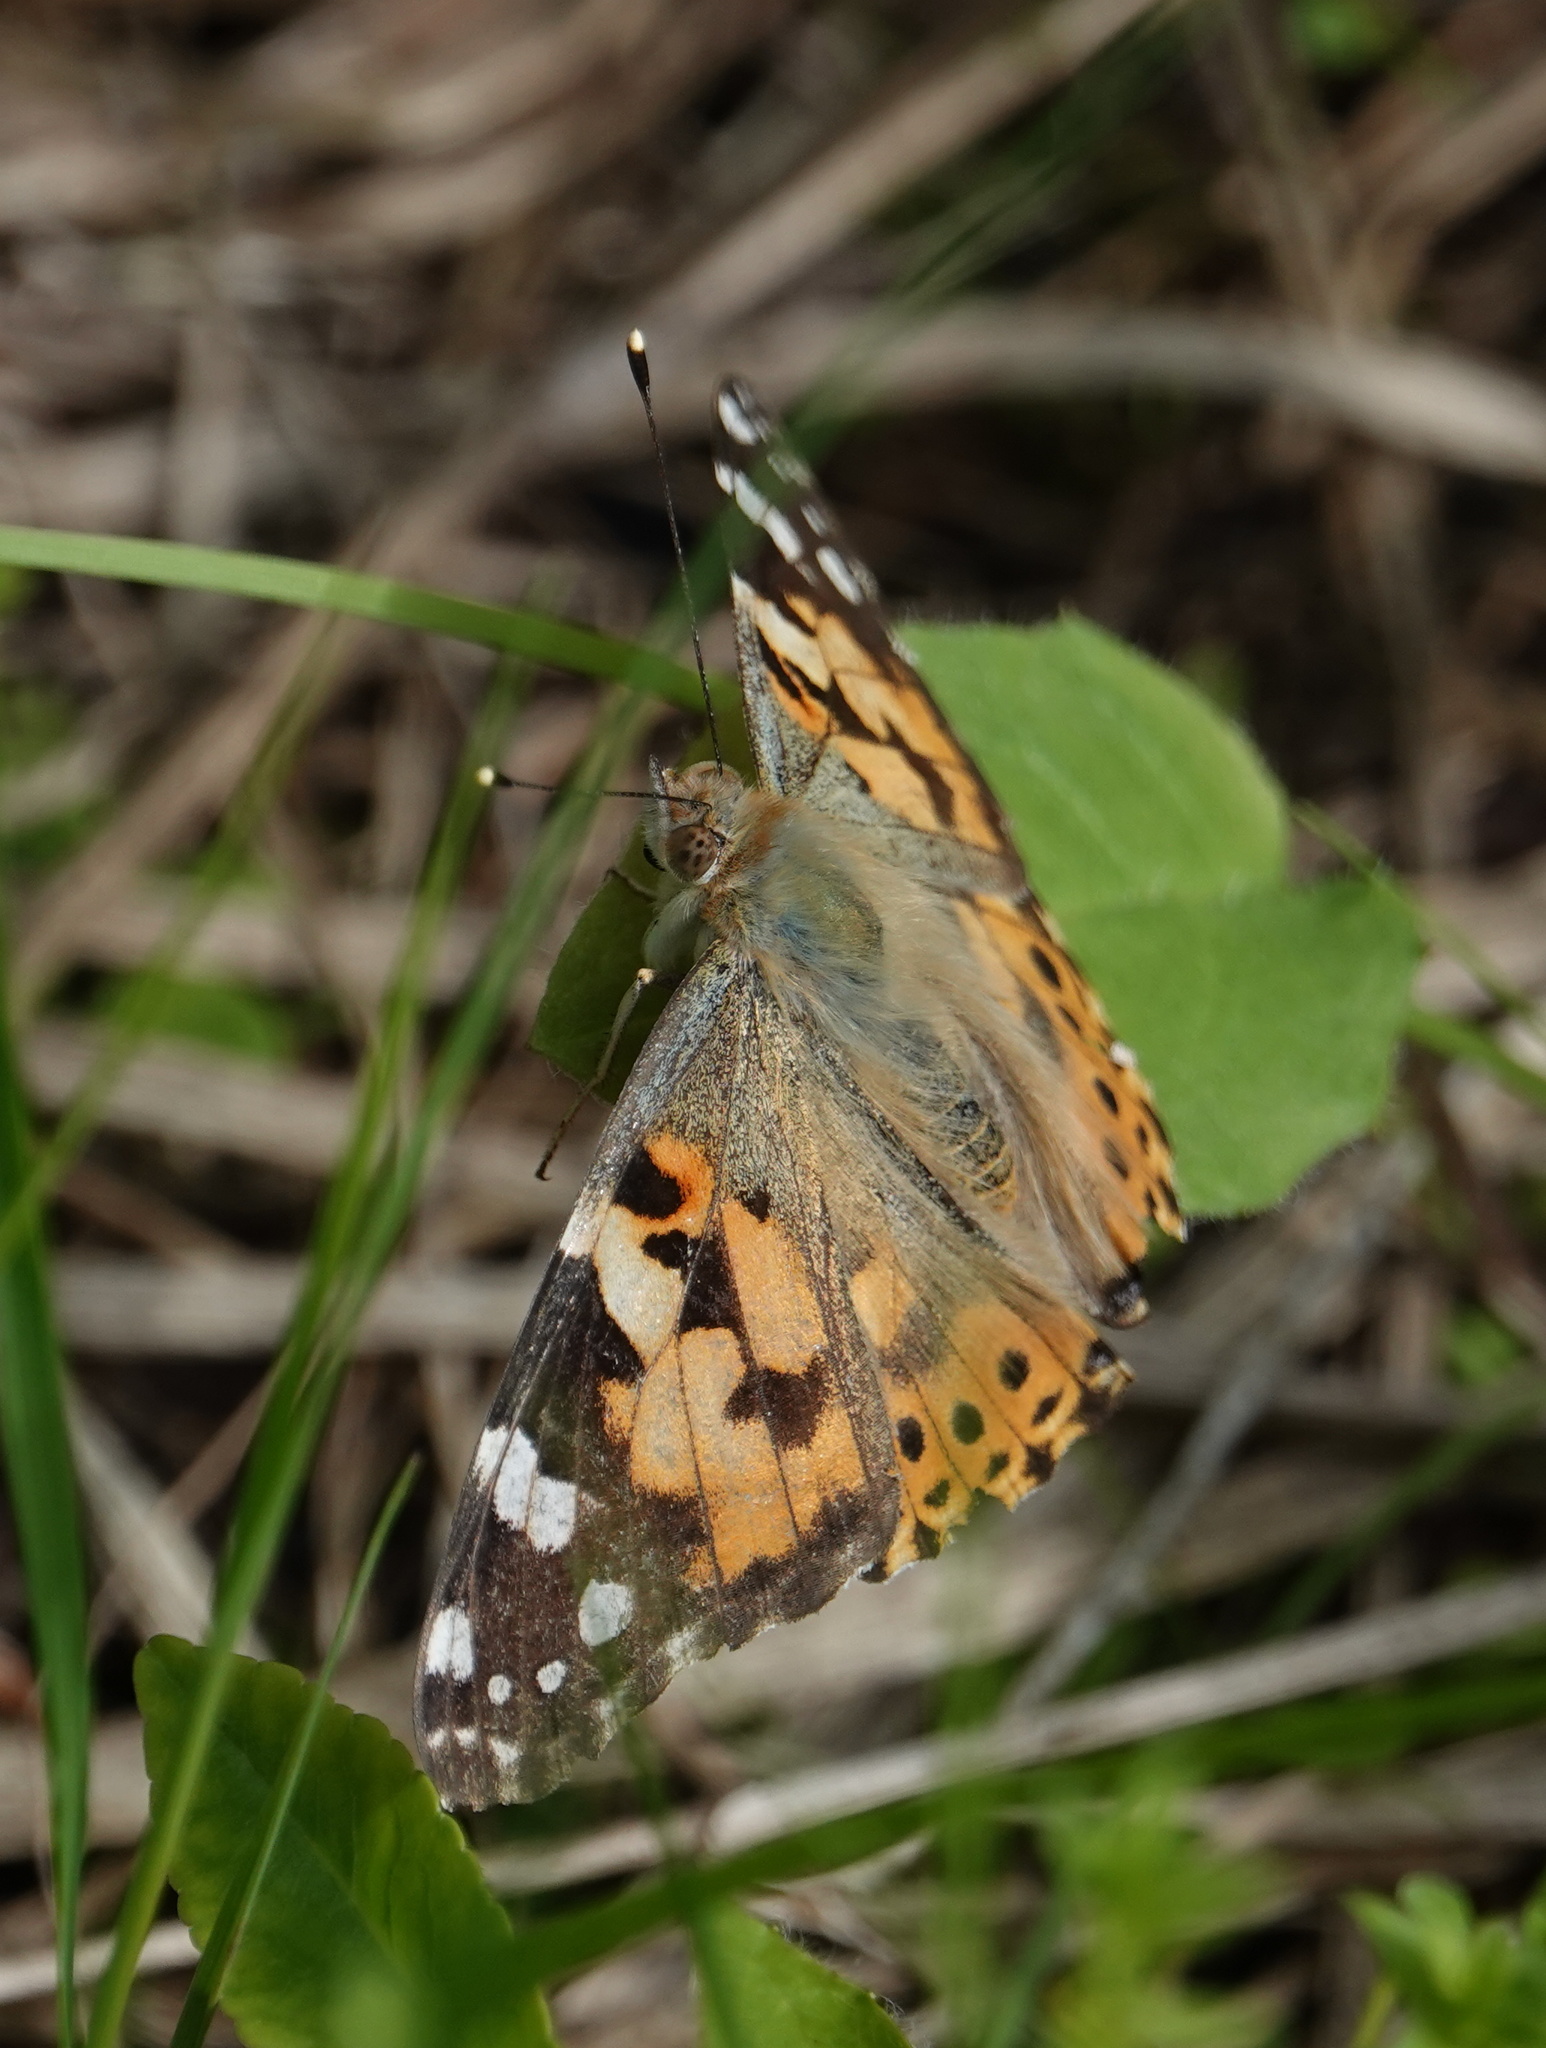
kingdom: Animalia
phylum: Arthropoda
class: Insecta
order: Lepidoptera
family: Nymphalidae
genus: Vanessa
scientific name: Vanessa cardui
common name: Painted lady
